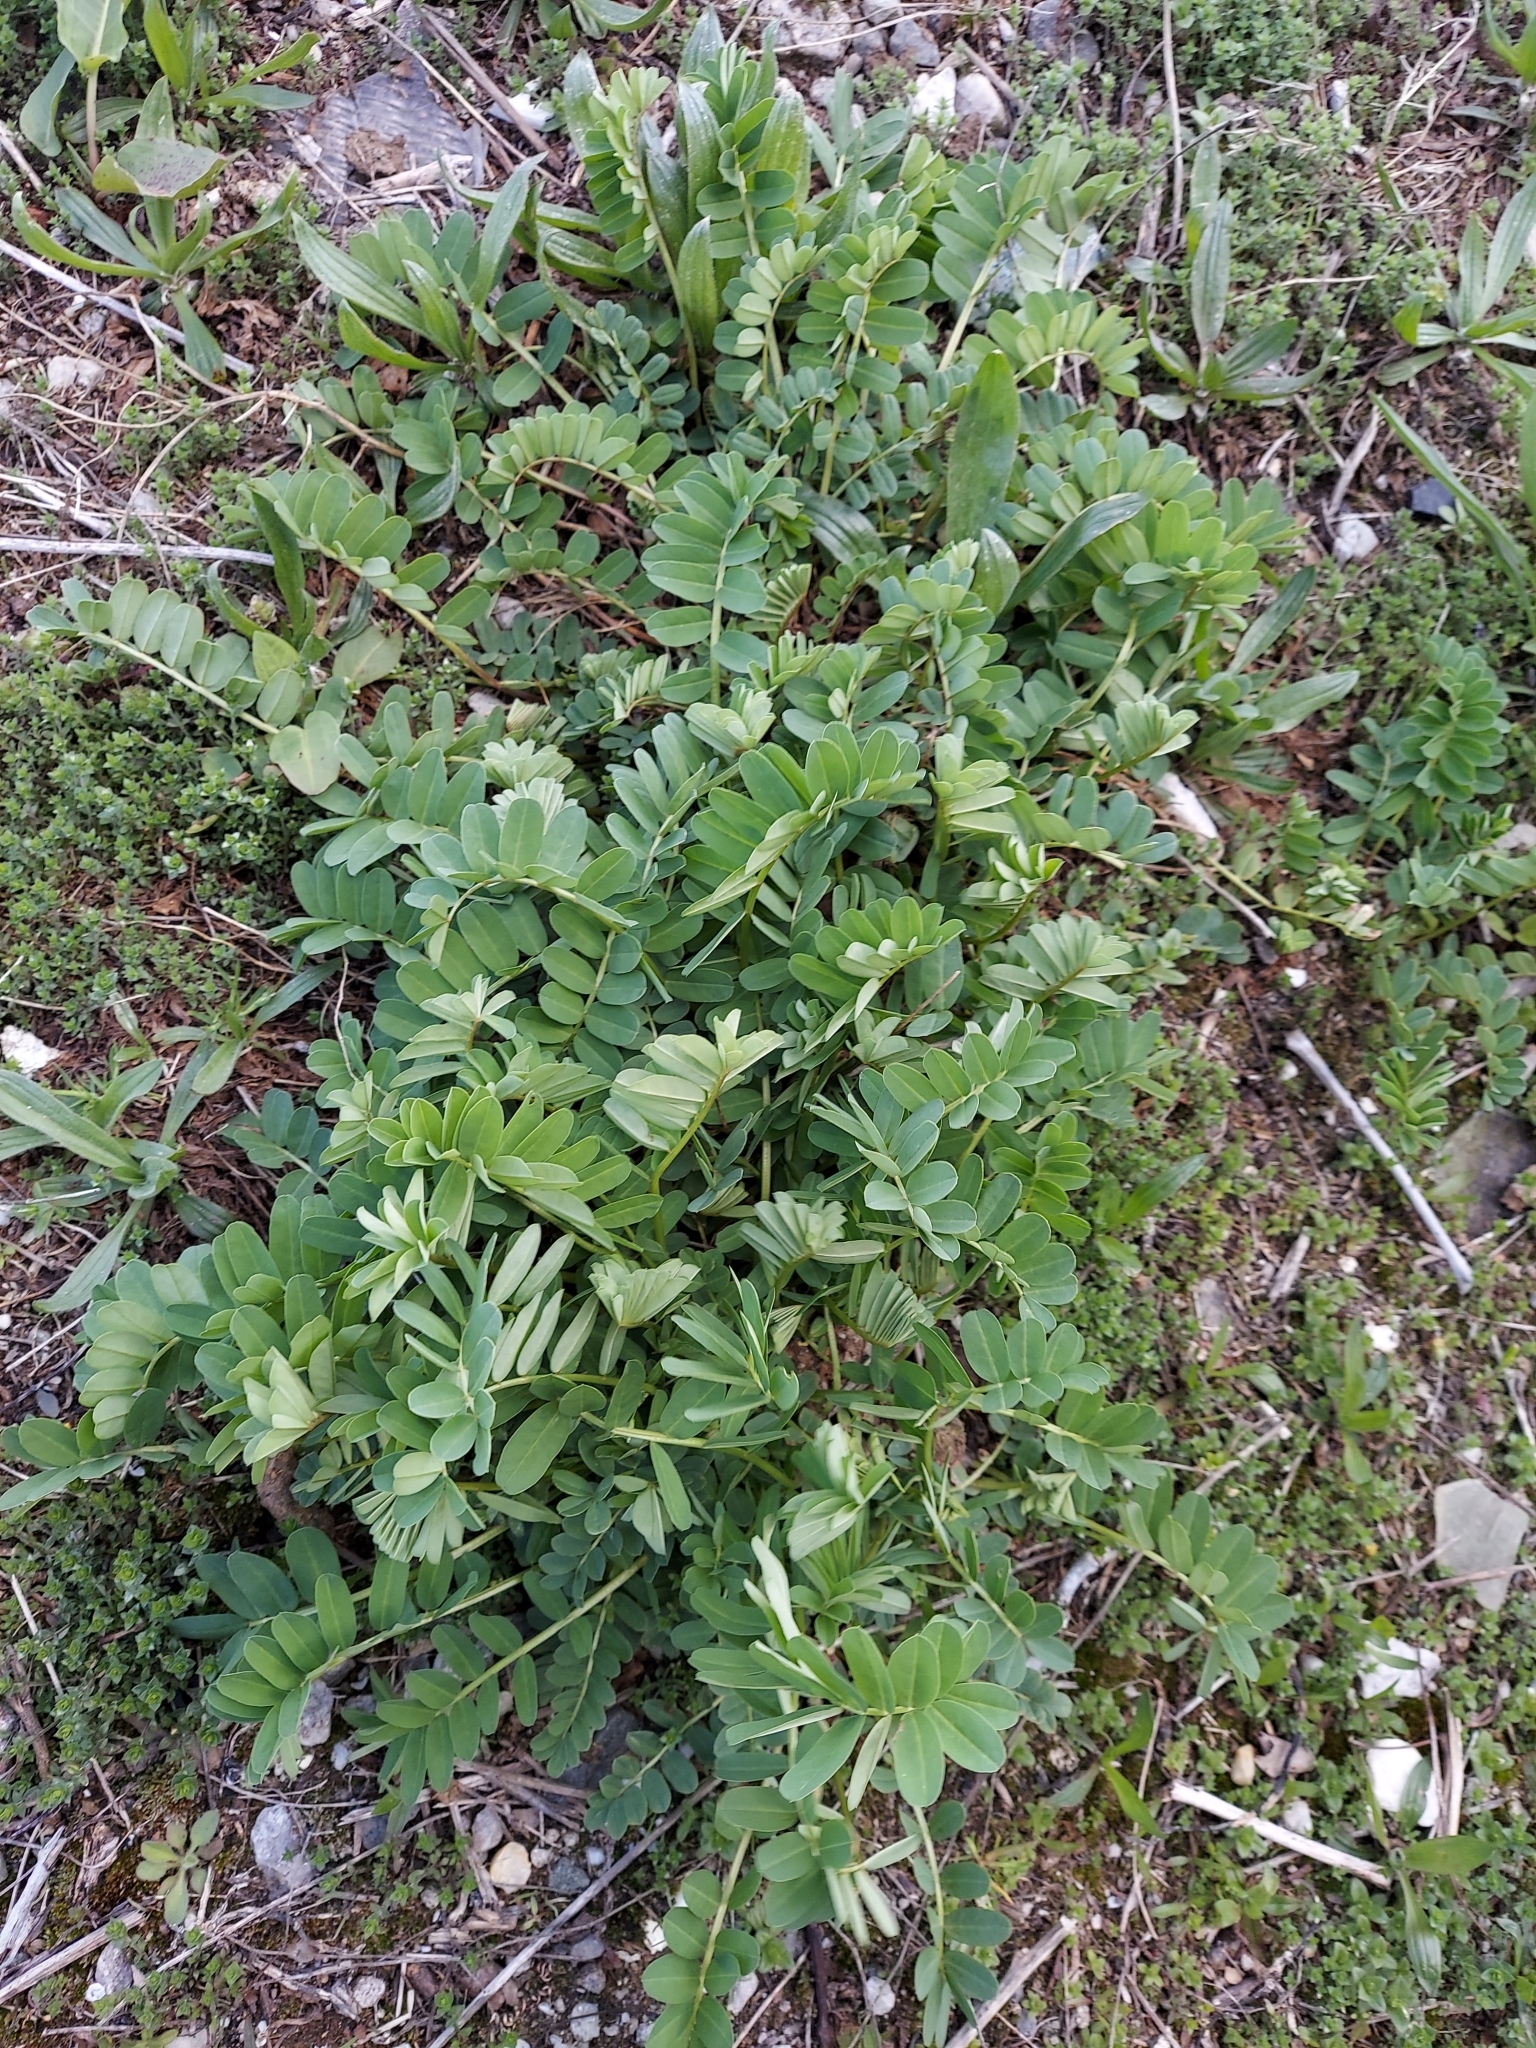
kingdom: Plantae
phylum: Tracheophyta
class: Magnoliopsida
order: Fabales
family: Fabaceae
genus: Coronilla
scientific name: Coronilla varia
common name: Crownvetch
